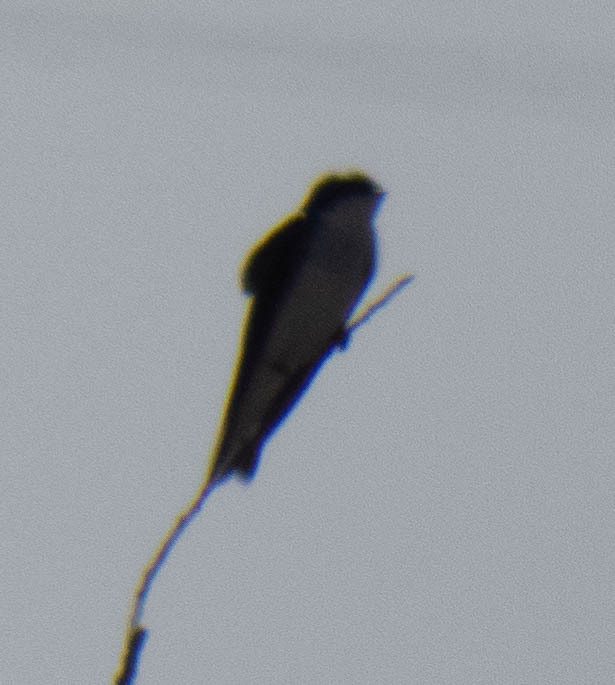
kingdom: Animalia
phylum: Chordata
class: Aves
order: Passeriformes
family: Hirundinidae
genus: Tachycineta
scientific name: Tachycineta bicolor
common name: Tree swallow
